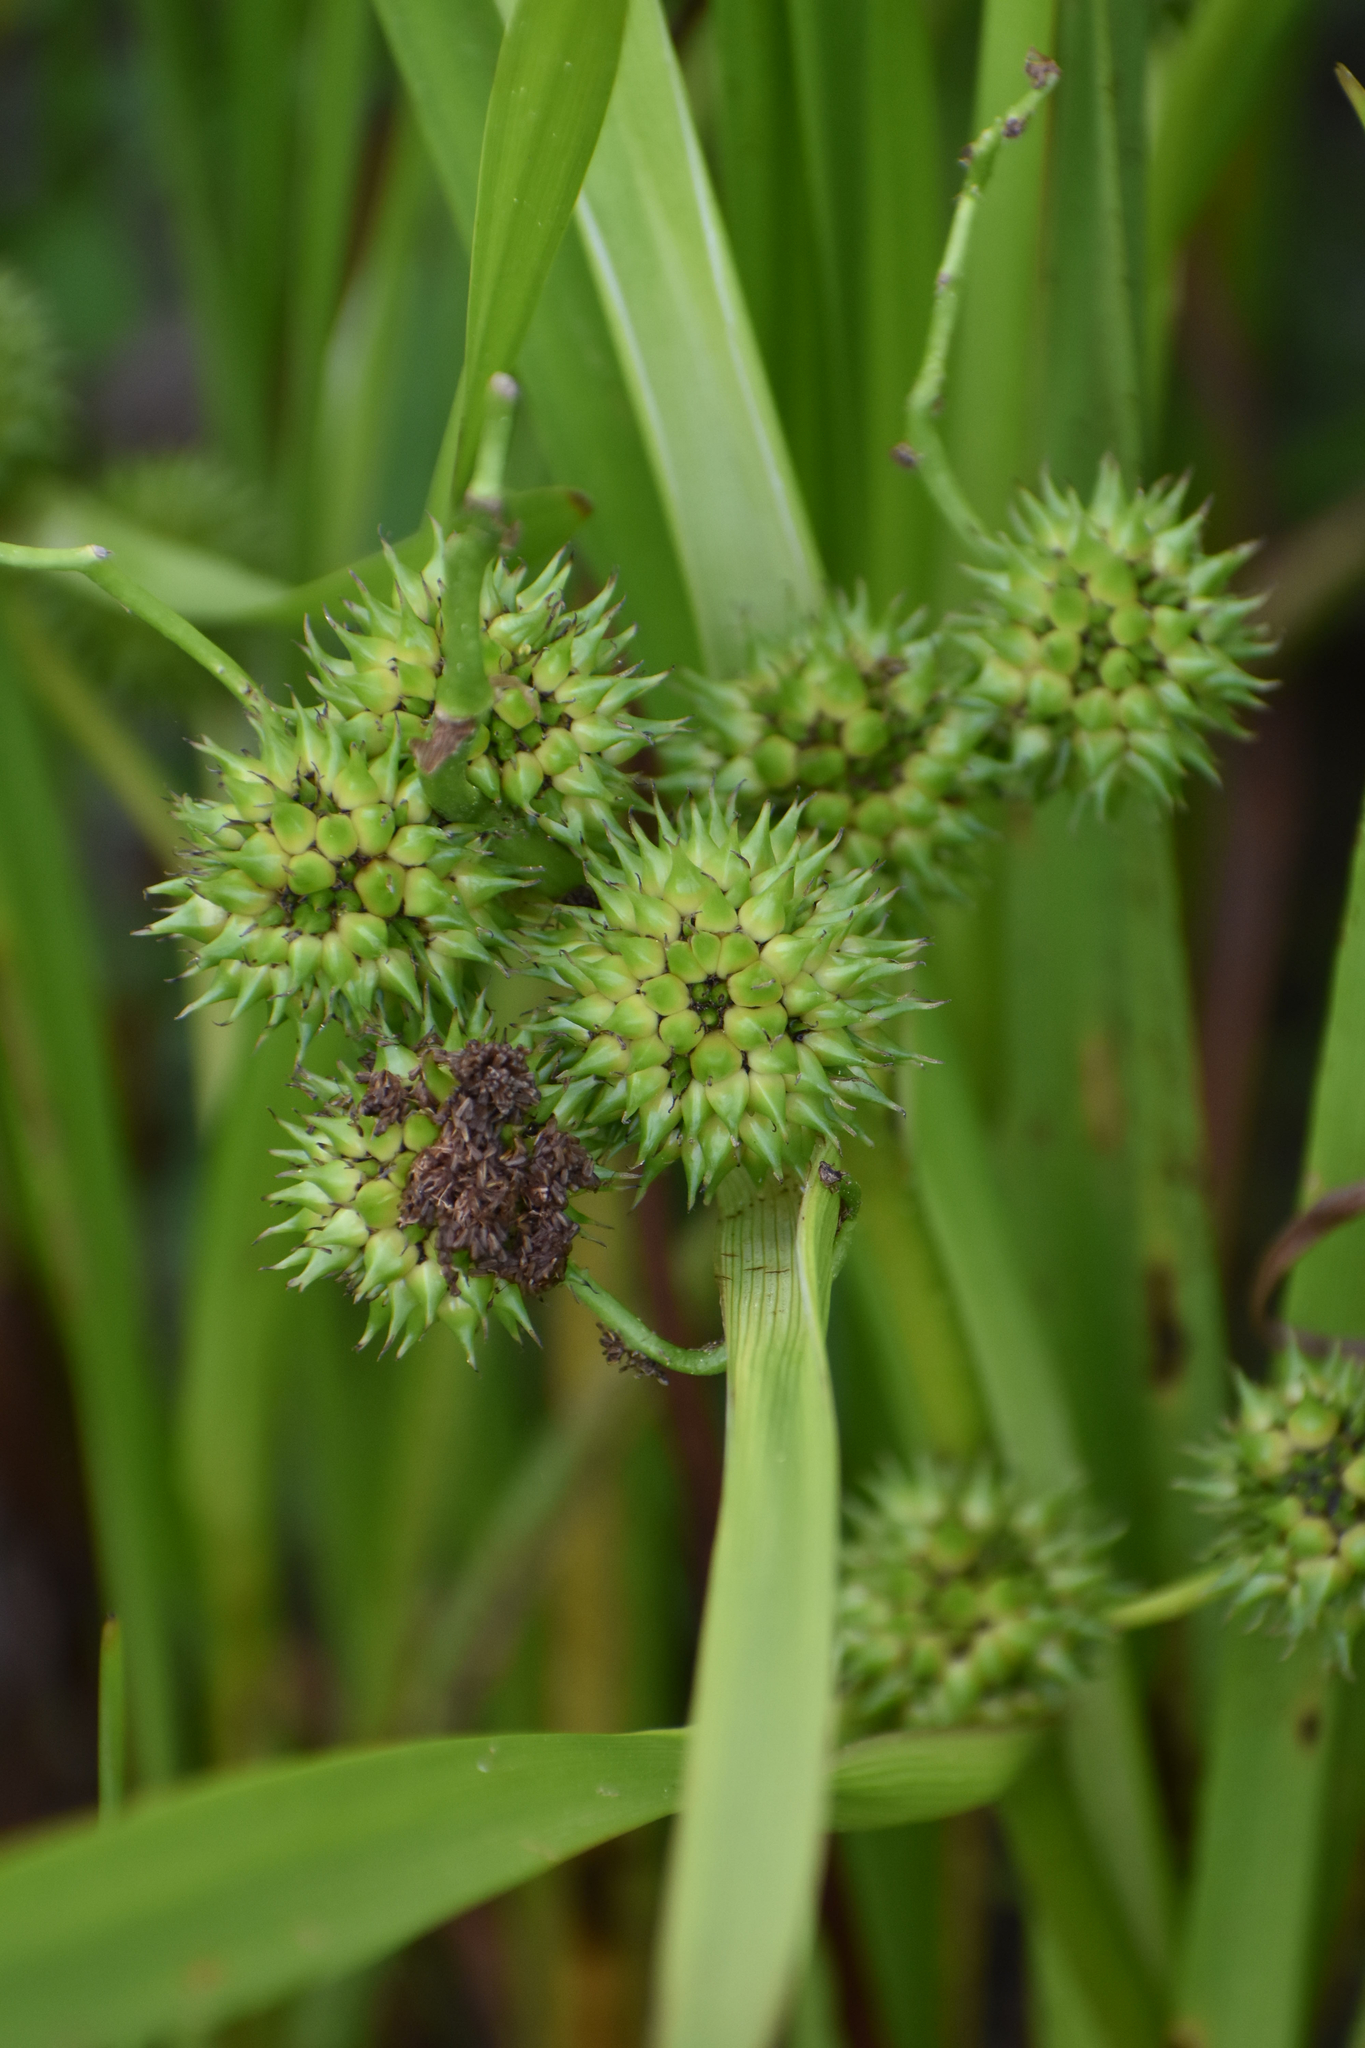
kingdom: Plantae
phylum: Tracheophyta
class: Liliopsida
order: Poales
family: Typhaceae
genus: Sparganium
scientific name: Sparganium erectum
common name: Branched bur-reed
